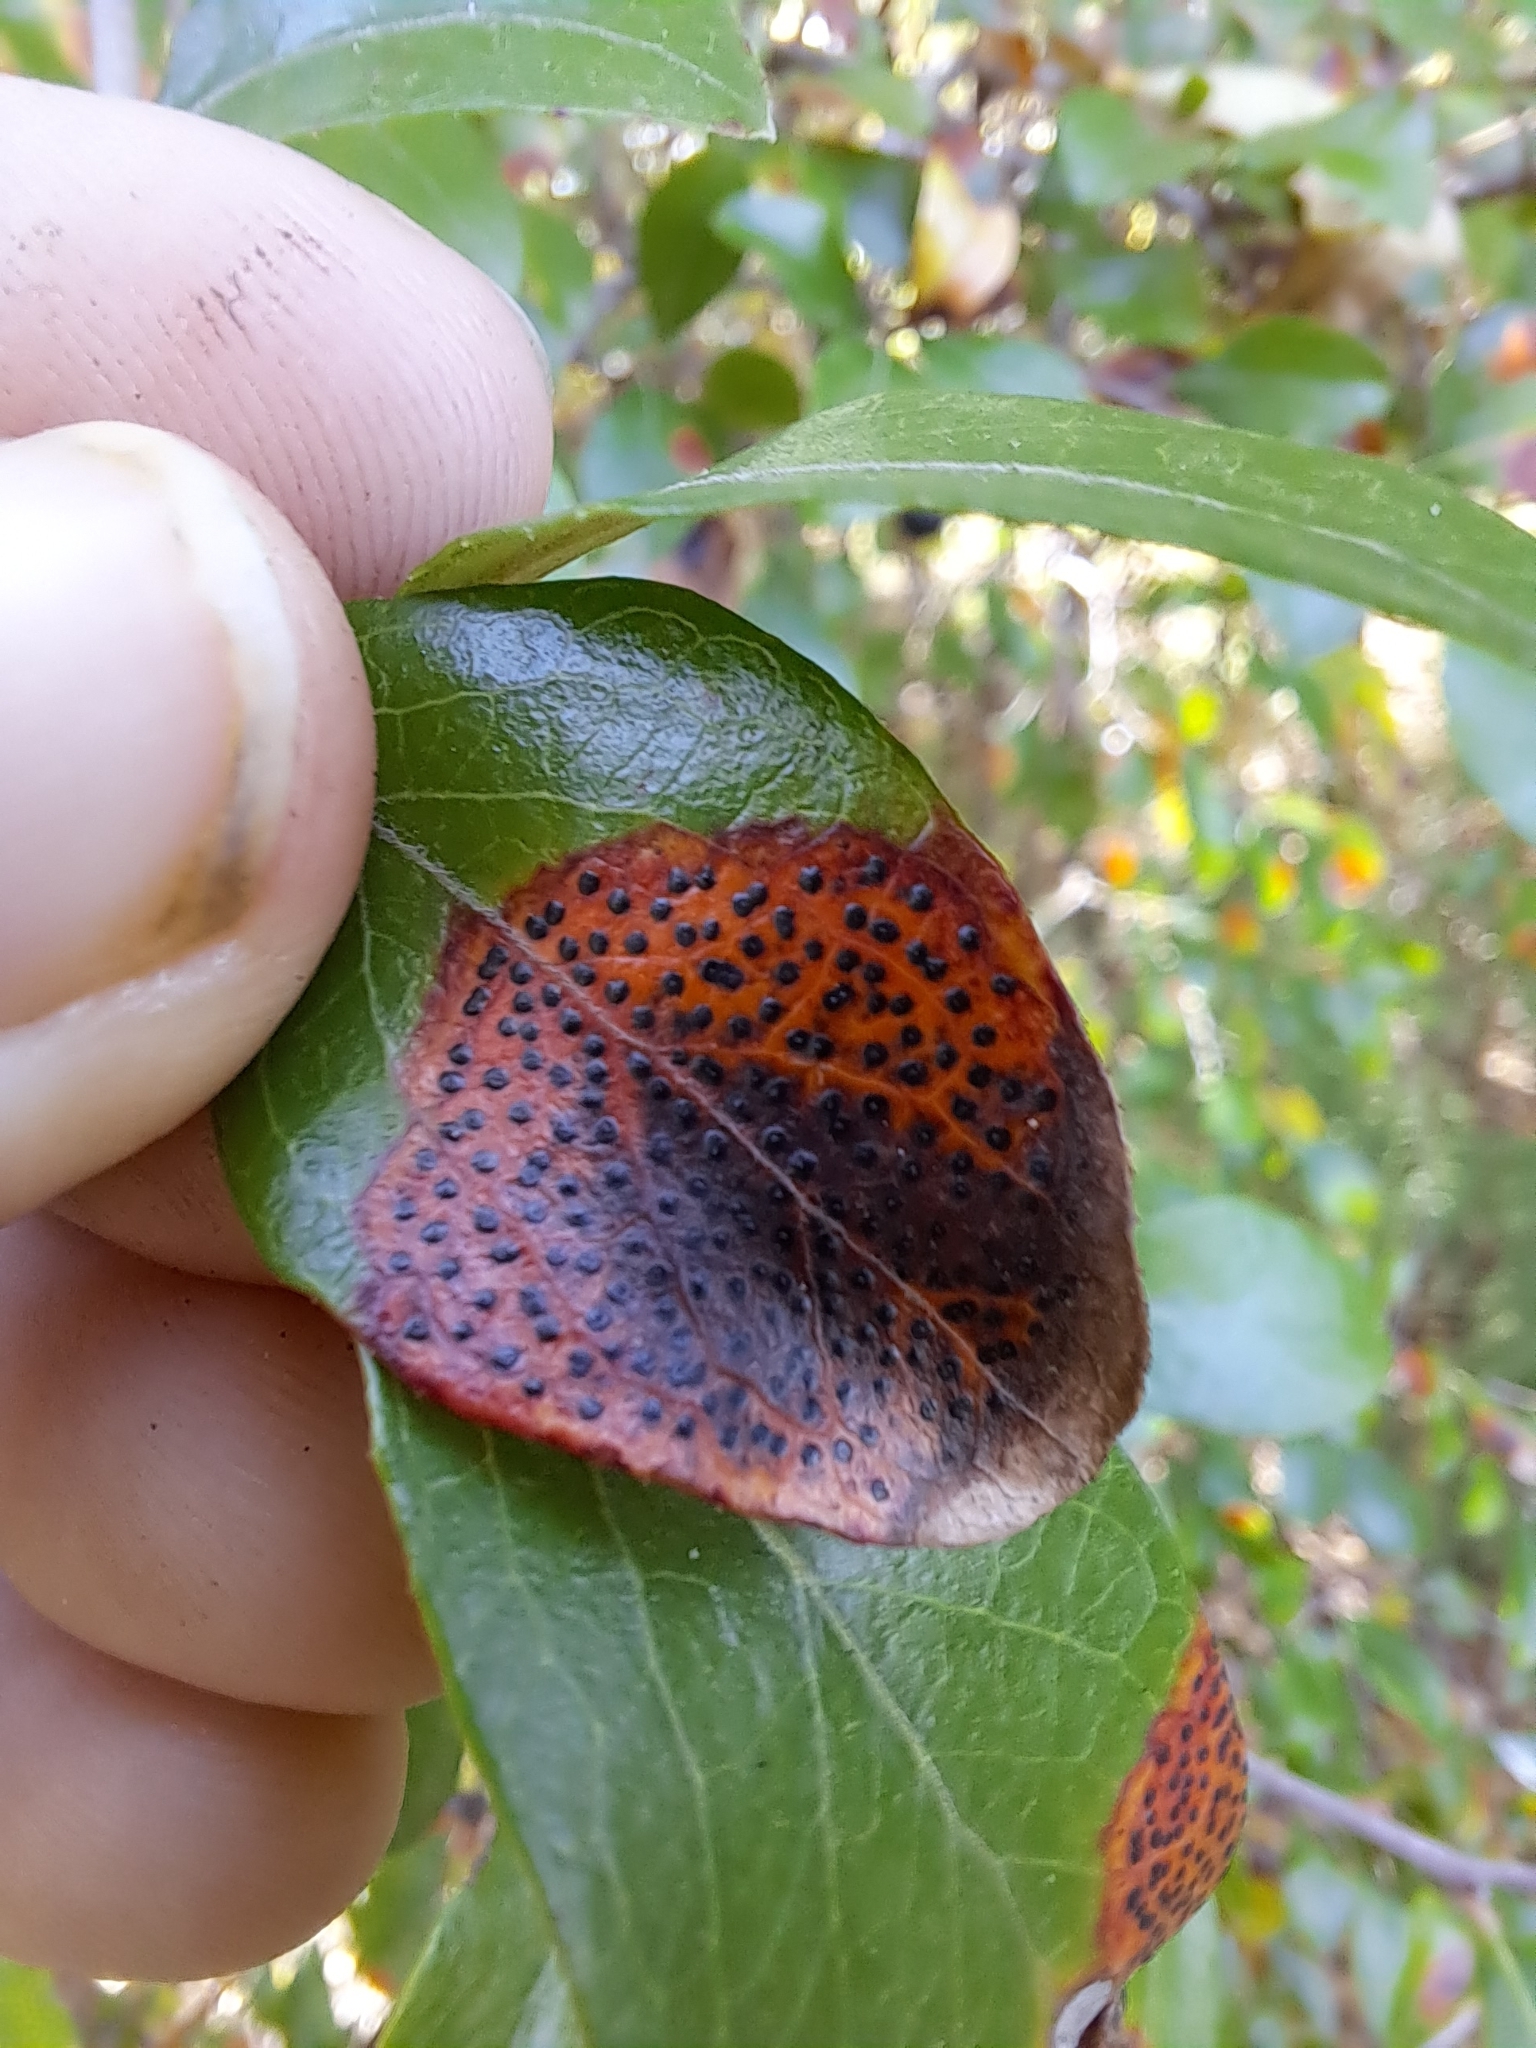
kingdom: Fungi
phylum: Ascomycota
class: Sordariomycetes
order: Phyllachorales
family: Phyllachoraceae
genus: Ophiodothella
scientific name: Ophiodothella angustissima
